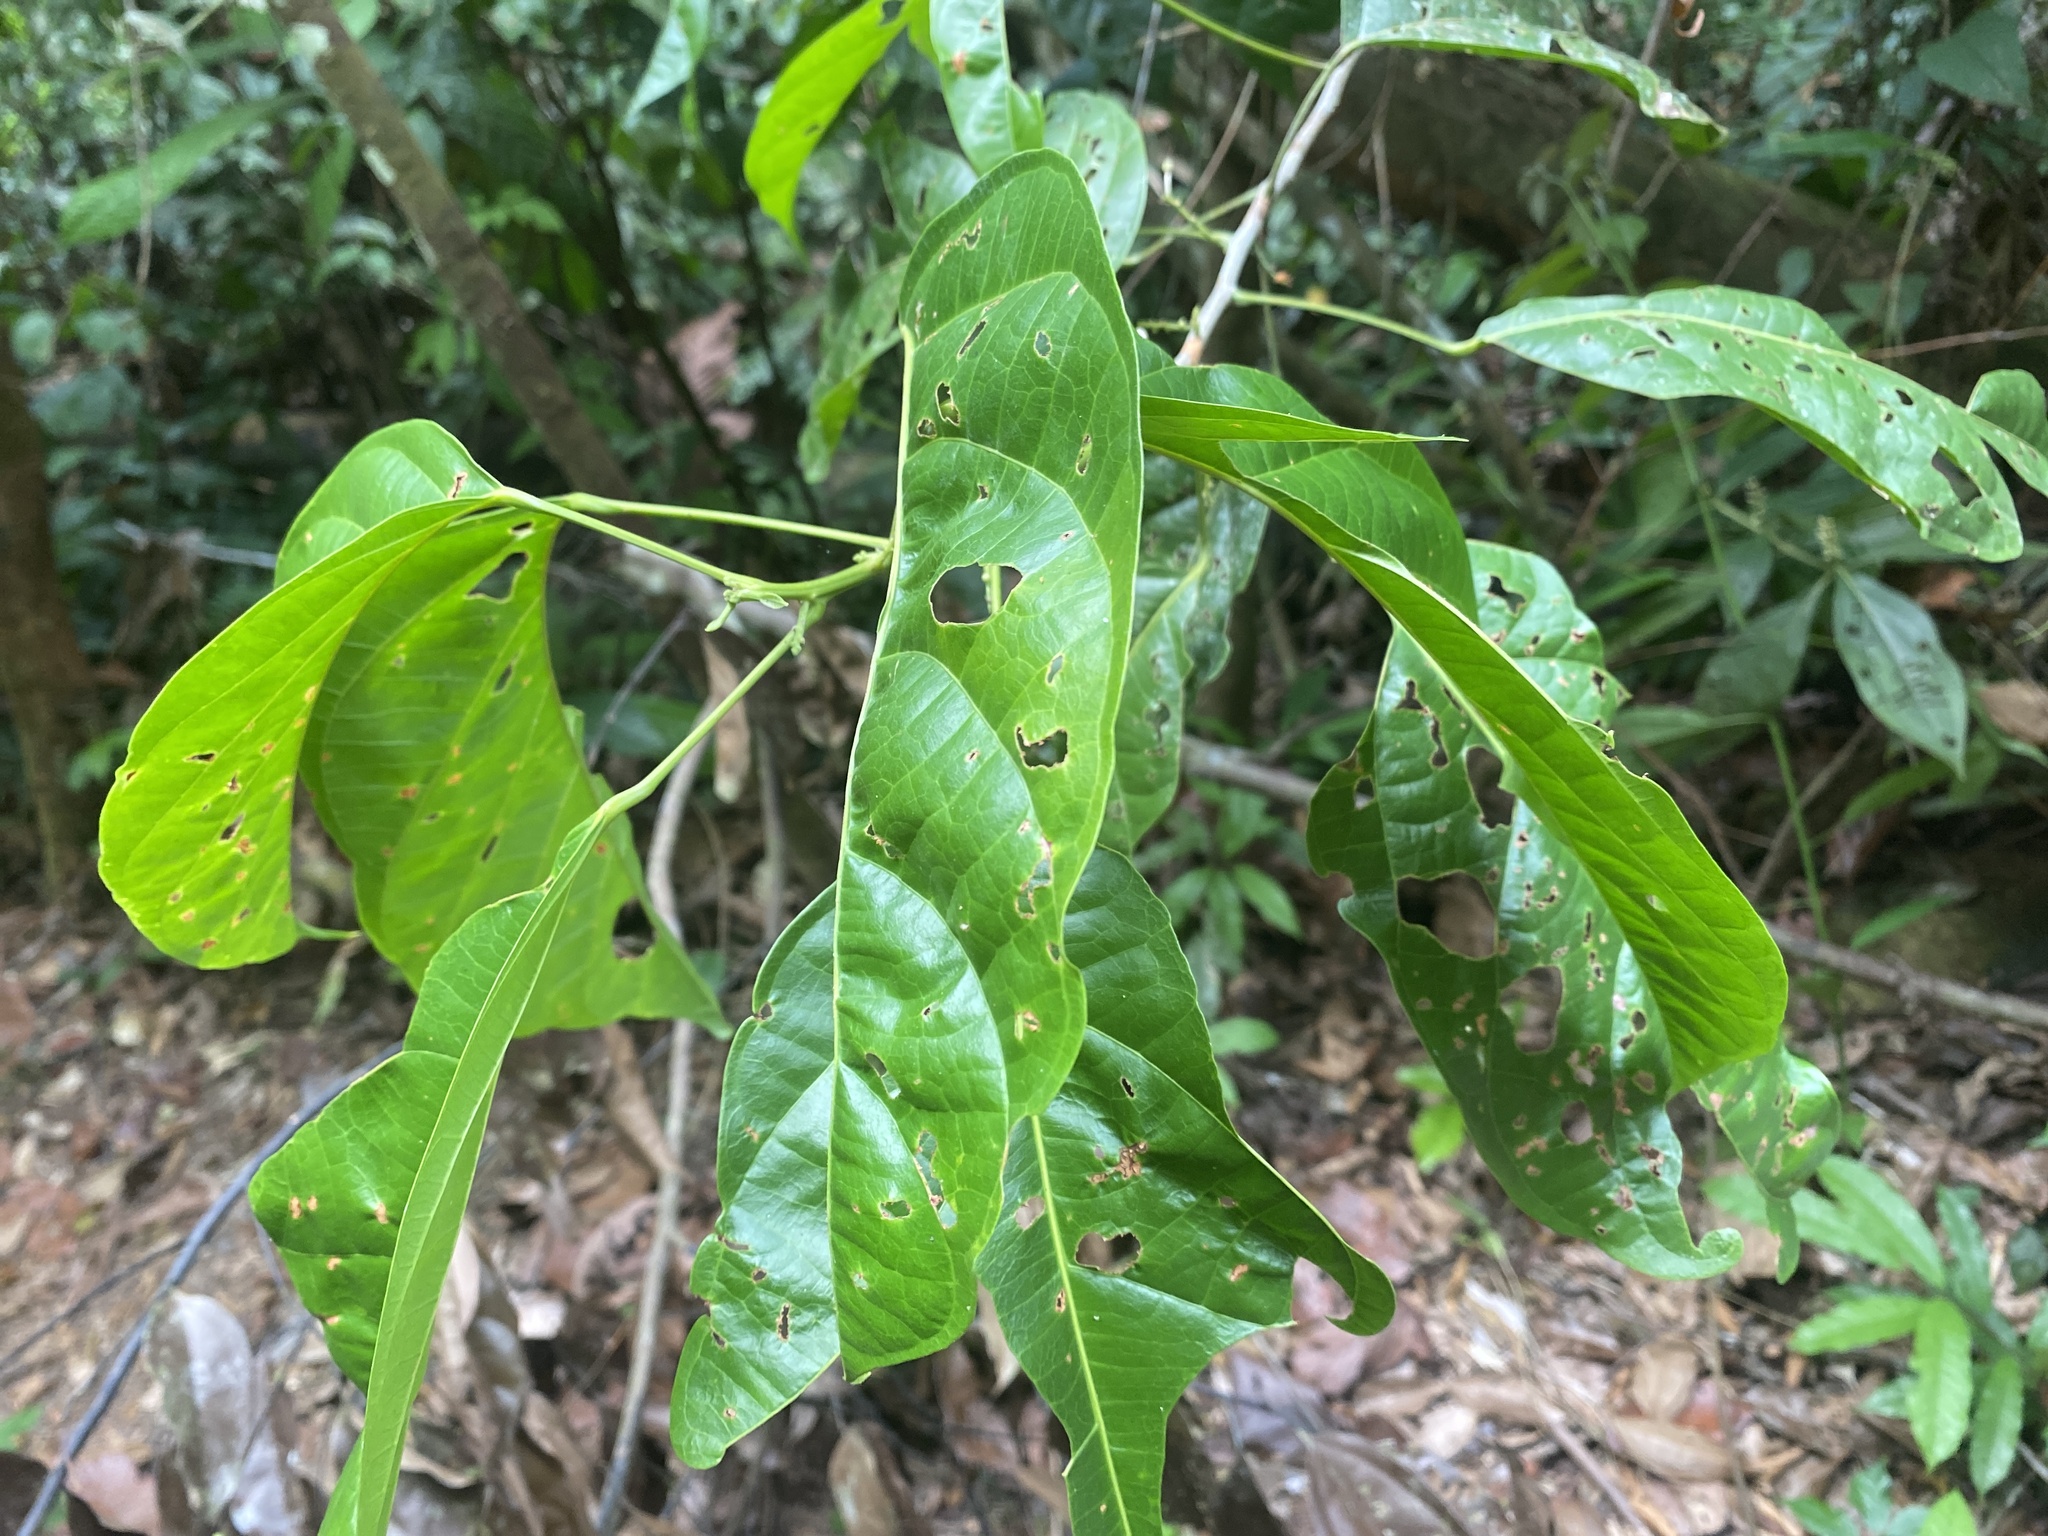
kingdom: Plantae
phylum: Tracheophyta
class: Magnoliopsida
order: Malpighiales
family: Achariaceae
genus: Lindackeria
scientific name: Lindackeria paludosa
